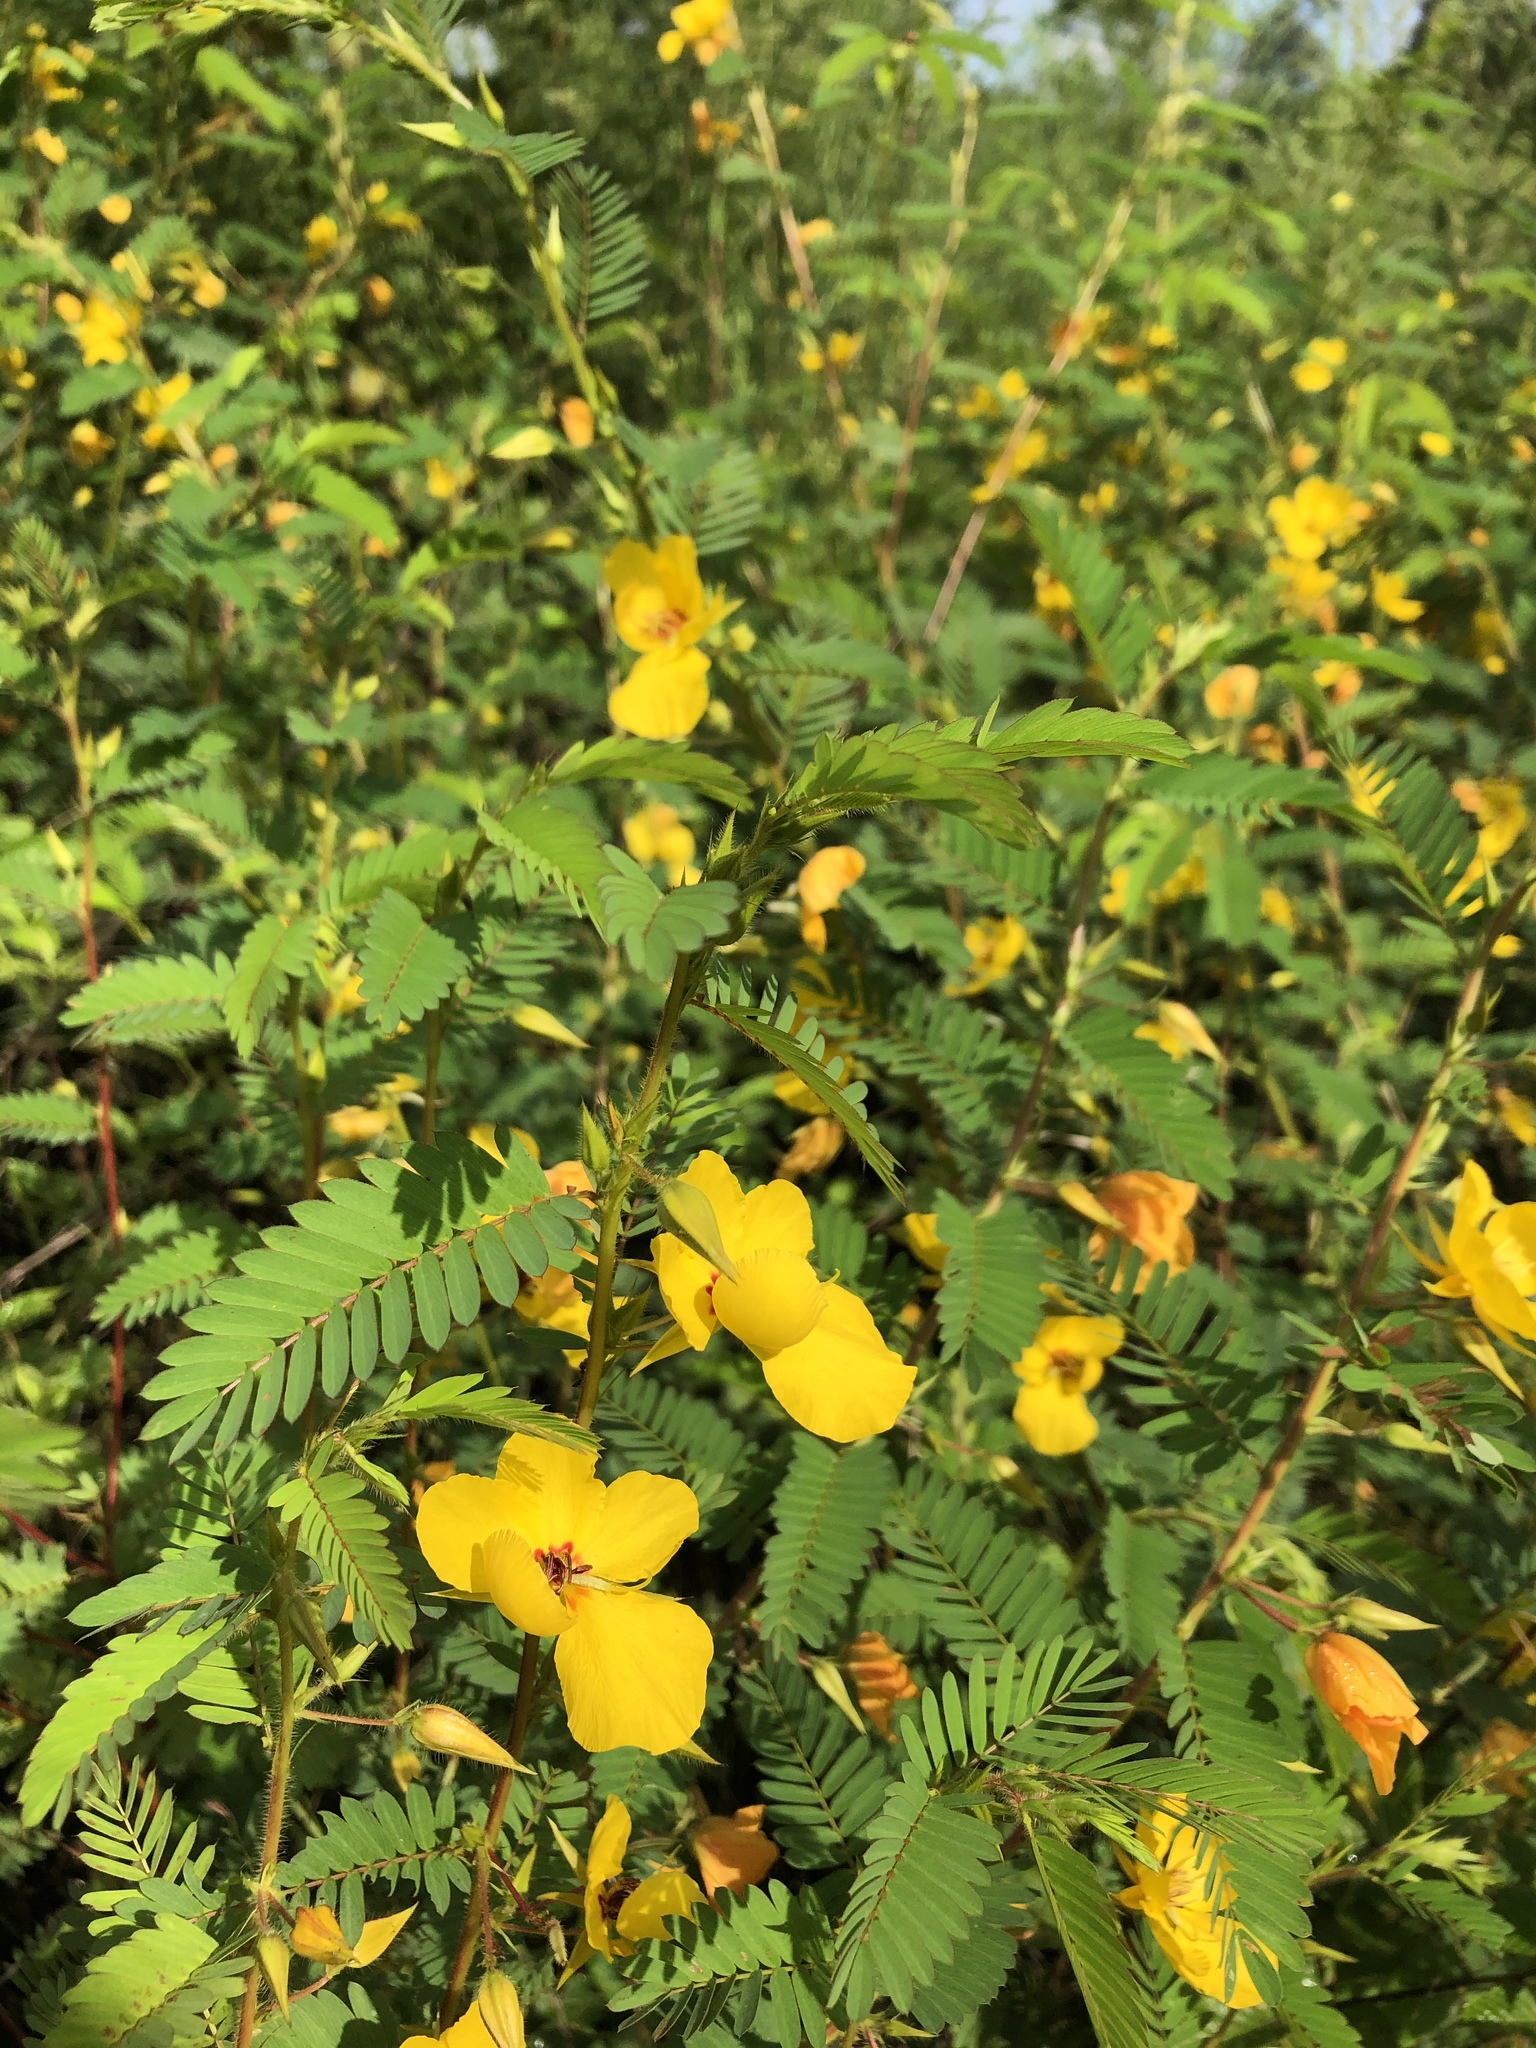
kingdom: Plantae
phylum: Tracheophyta
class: Magnoliopsida
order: Fabales
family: Fabaceae
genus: Chamaecrista
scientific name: Chamaecrista fasciculata
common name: Golden cassia
